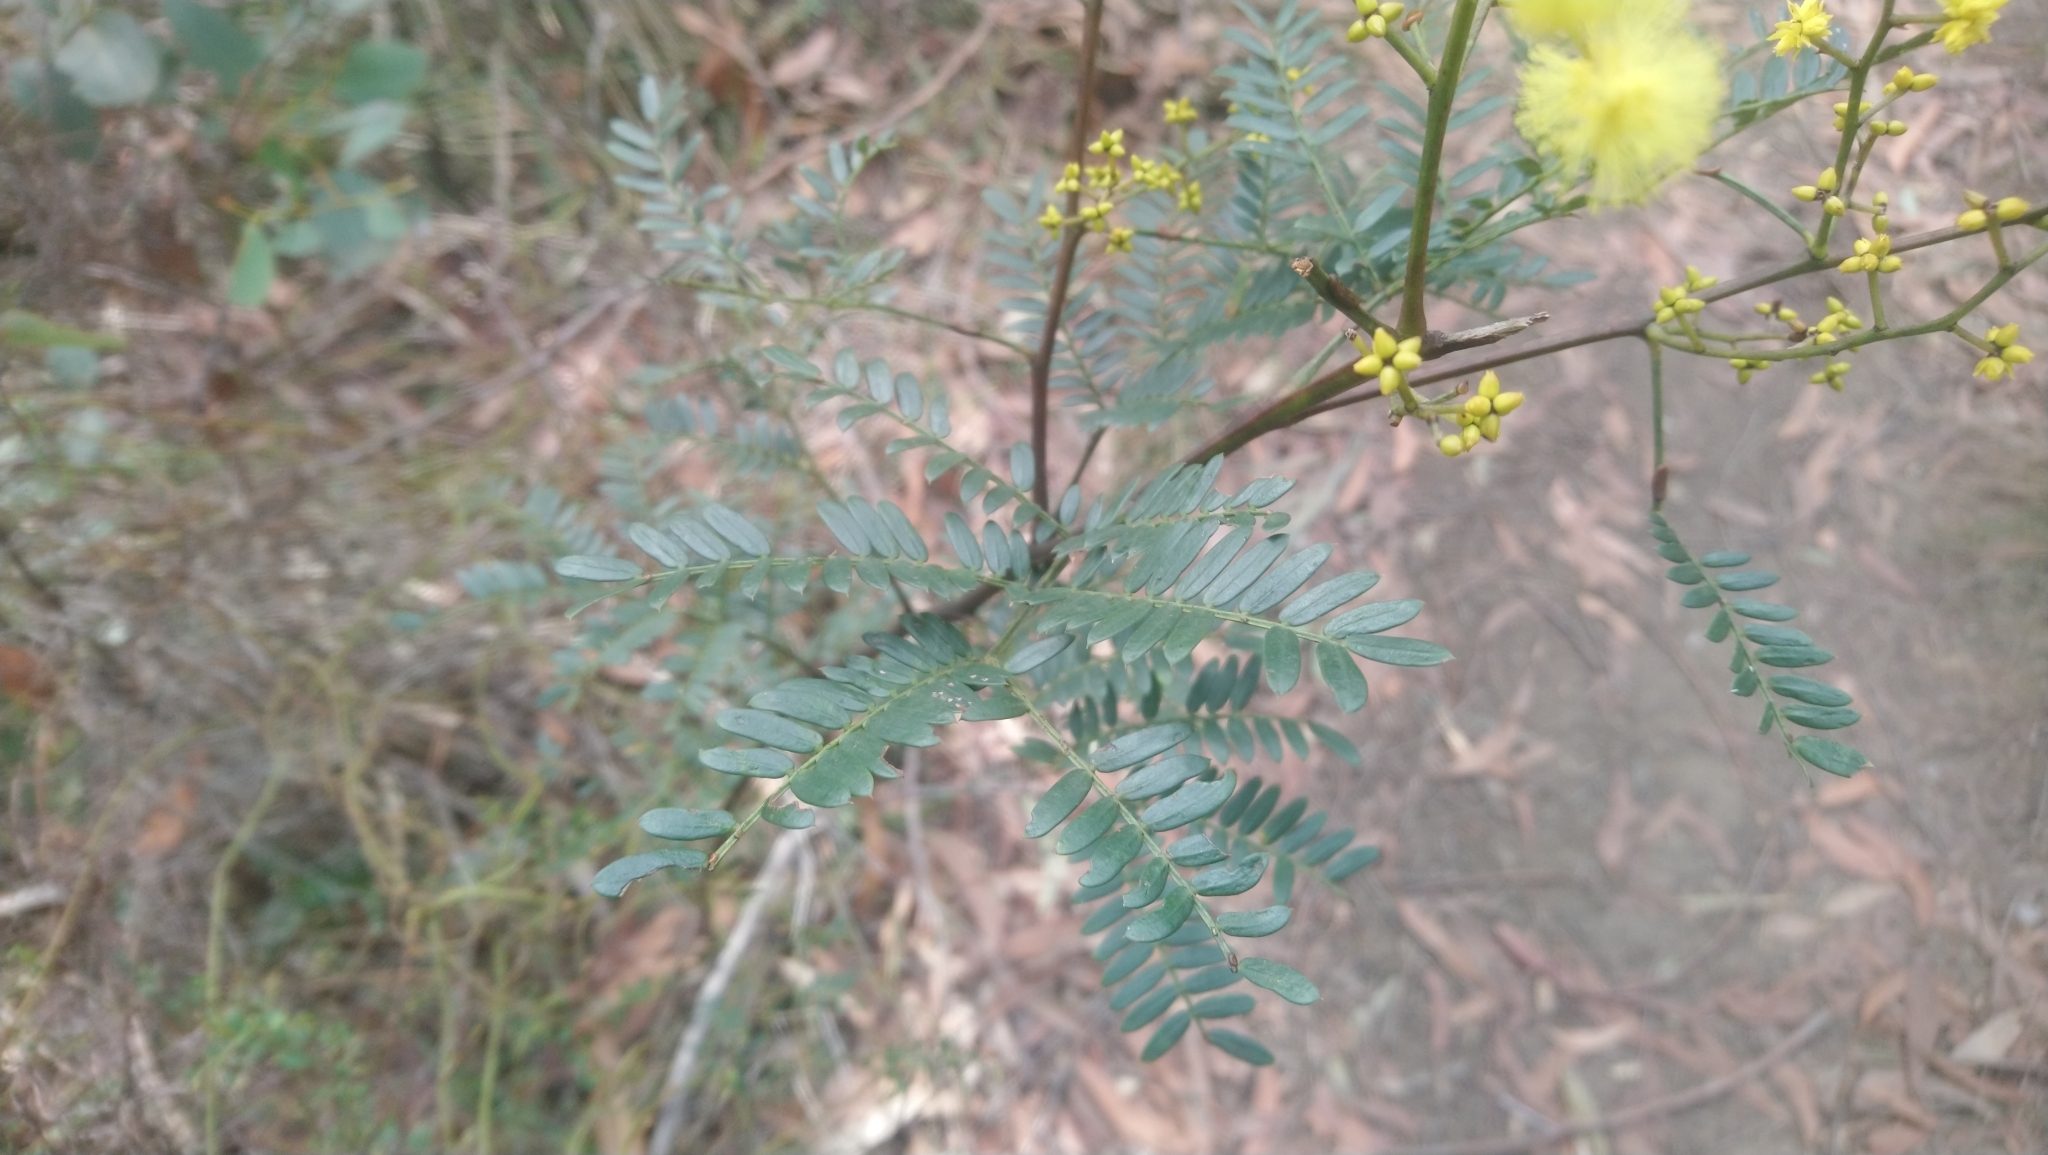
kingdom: Plantae
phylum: Tracheophyta
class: Magnoliopsida
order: Fabales
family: Fabaceae
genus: Acacia
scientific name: Acacia terminalis
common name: Cedar wattle
